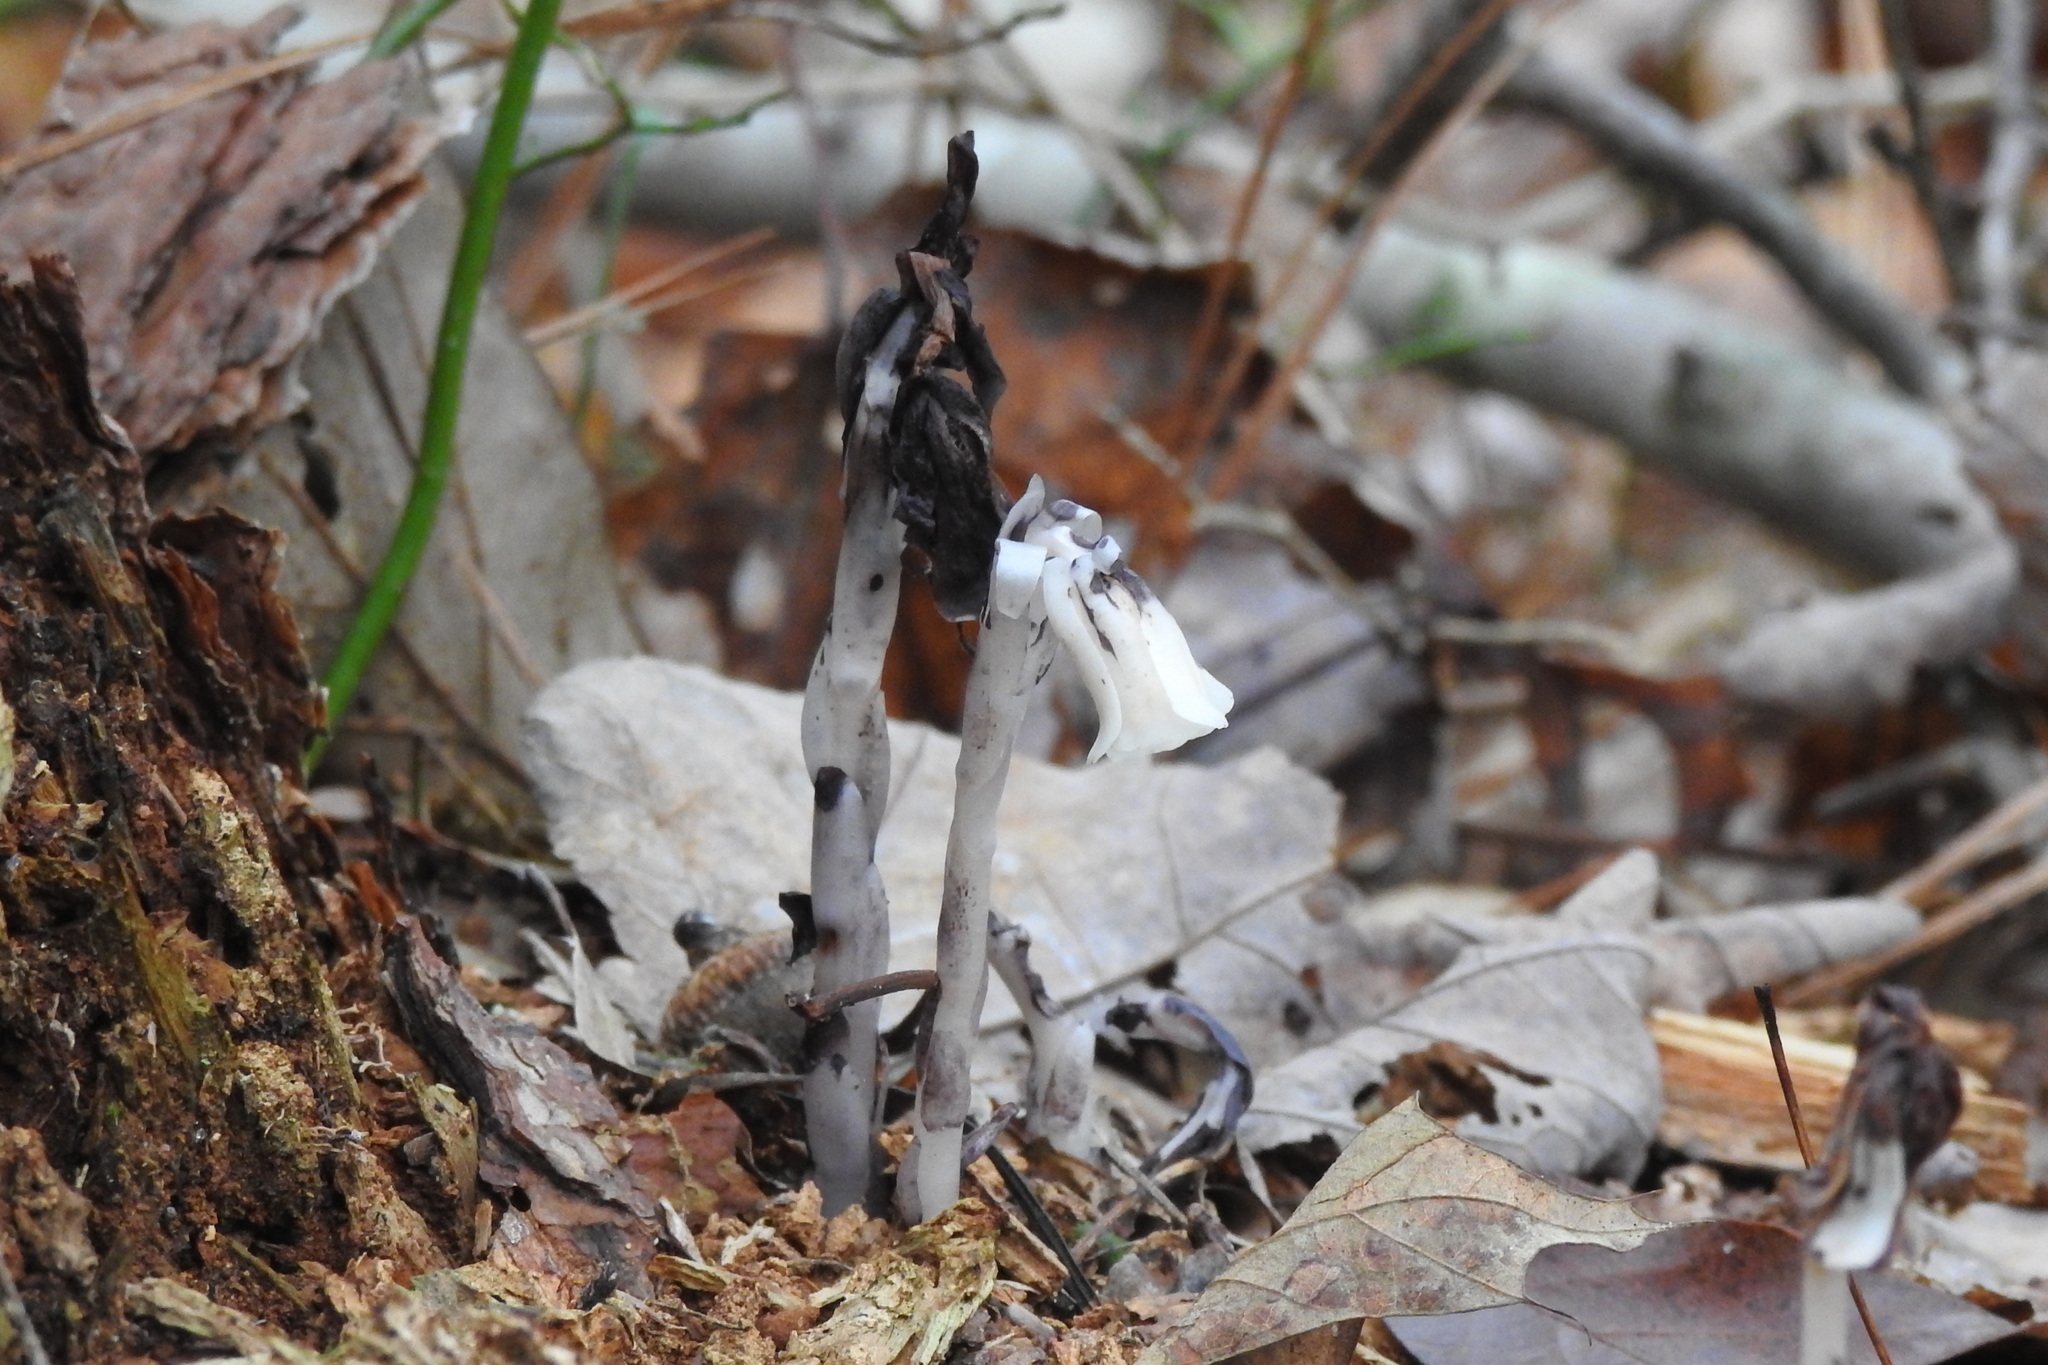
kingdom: Plantae
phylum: Tracheophyta
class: Magnoliopsida
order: Ericales
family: Ericaceae
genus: Monotropa
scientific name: Monotropa uniflora
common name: Convulsion root
